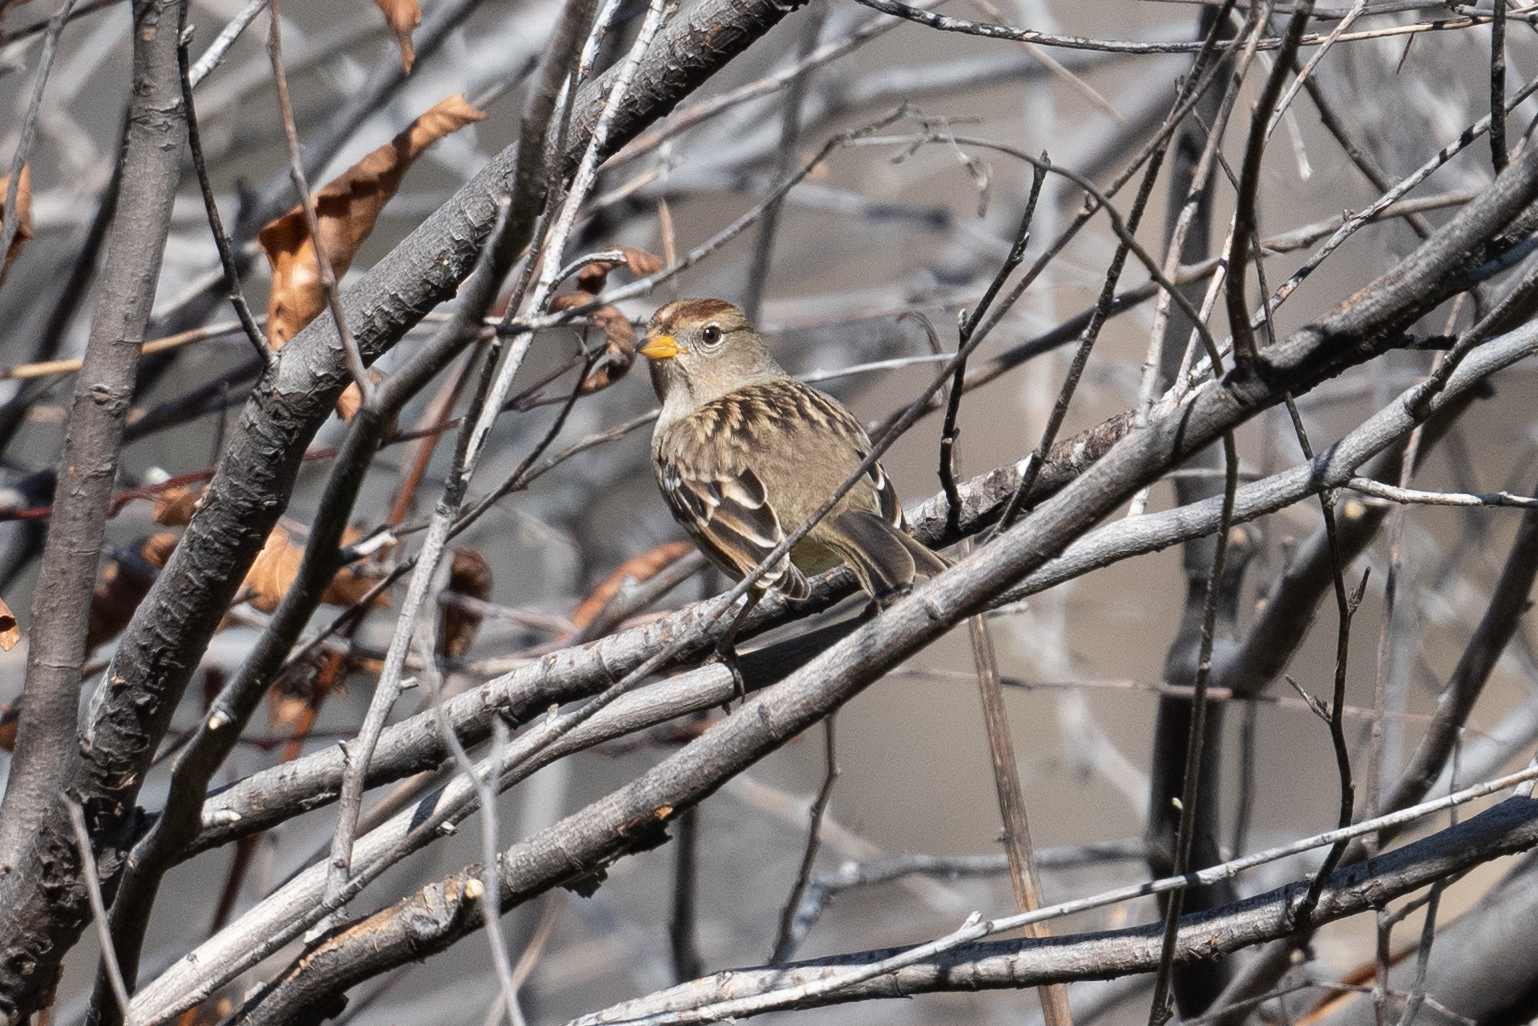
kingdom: Animalia
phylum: Chordata
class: Aves
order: Passeriformes
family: Passerellidae
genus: Zonotrichia
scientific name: Zonotrichia leucophrys
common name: White-crowned sparrow
